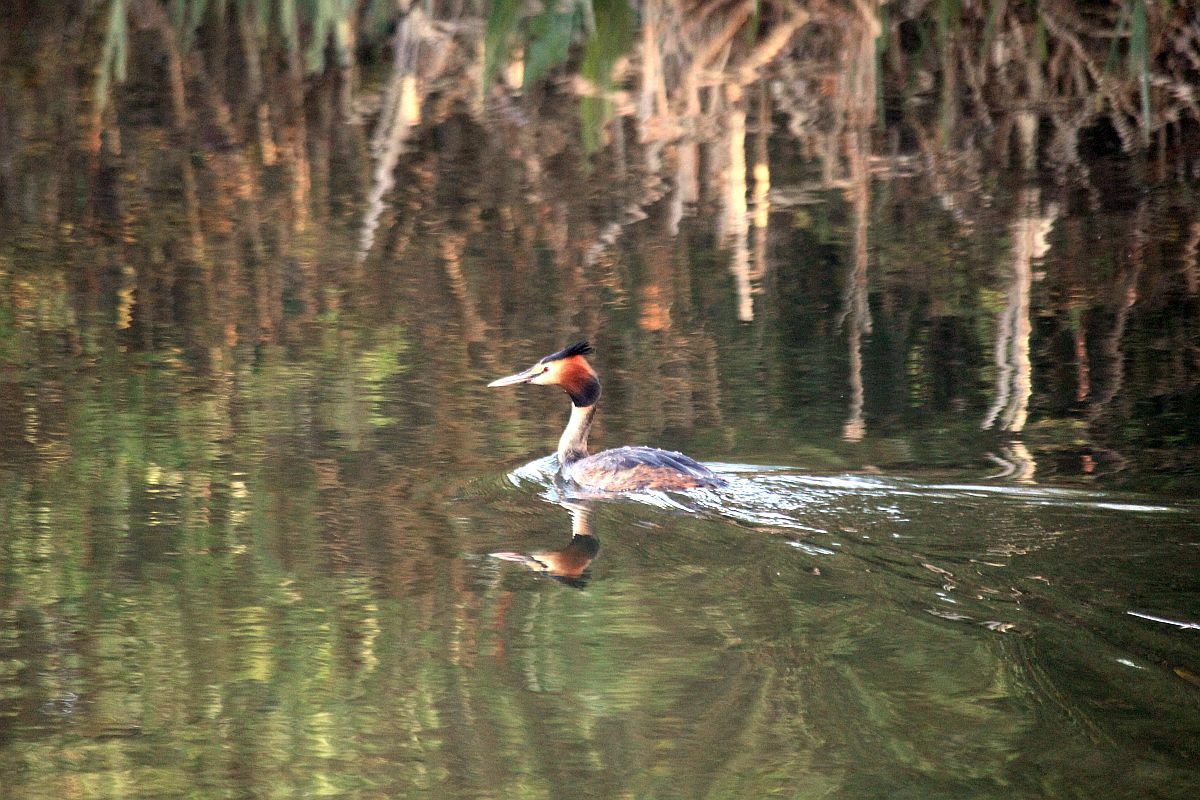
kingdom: Animalia
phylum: Chordata
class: Aves
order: Podicipediformes
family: Podicipedidae
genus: Podiceps
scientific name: Podiceps cristatus
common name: Great crested grebe
